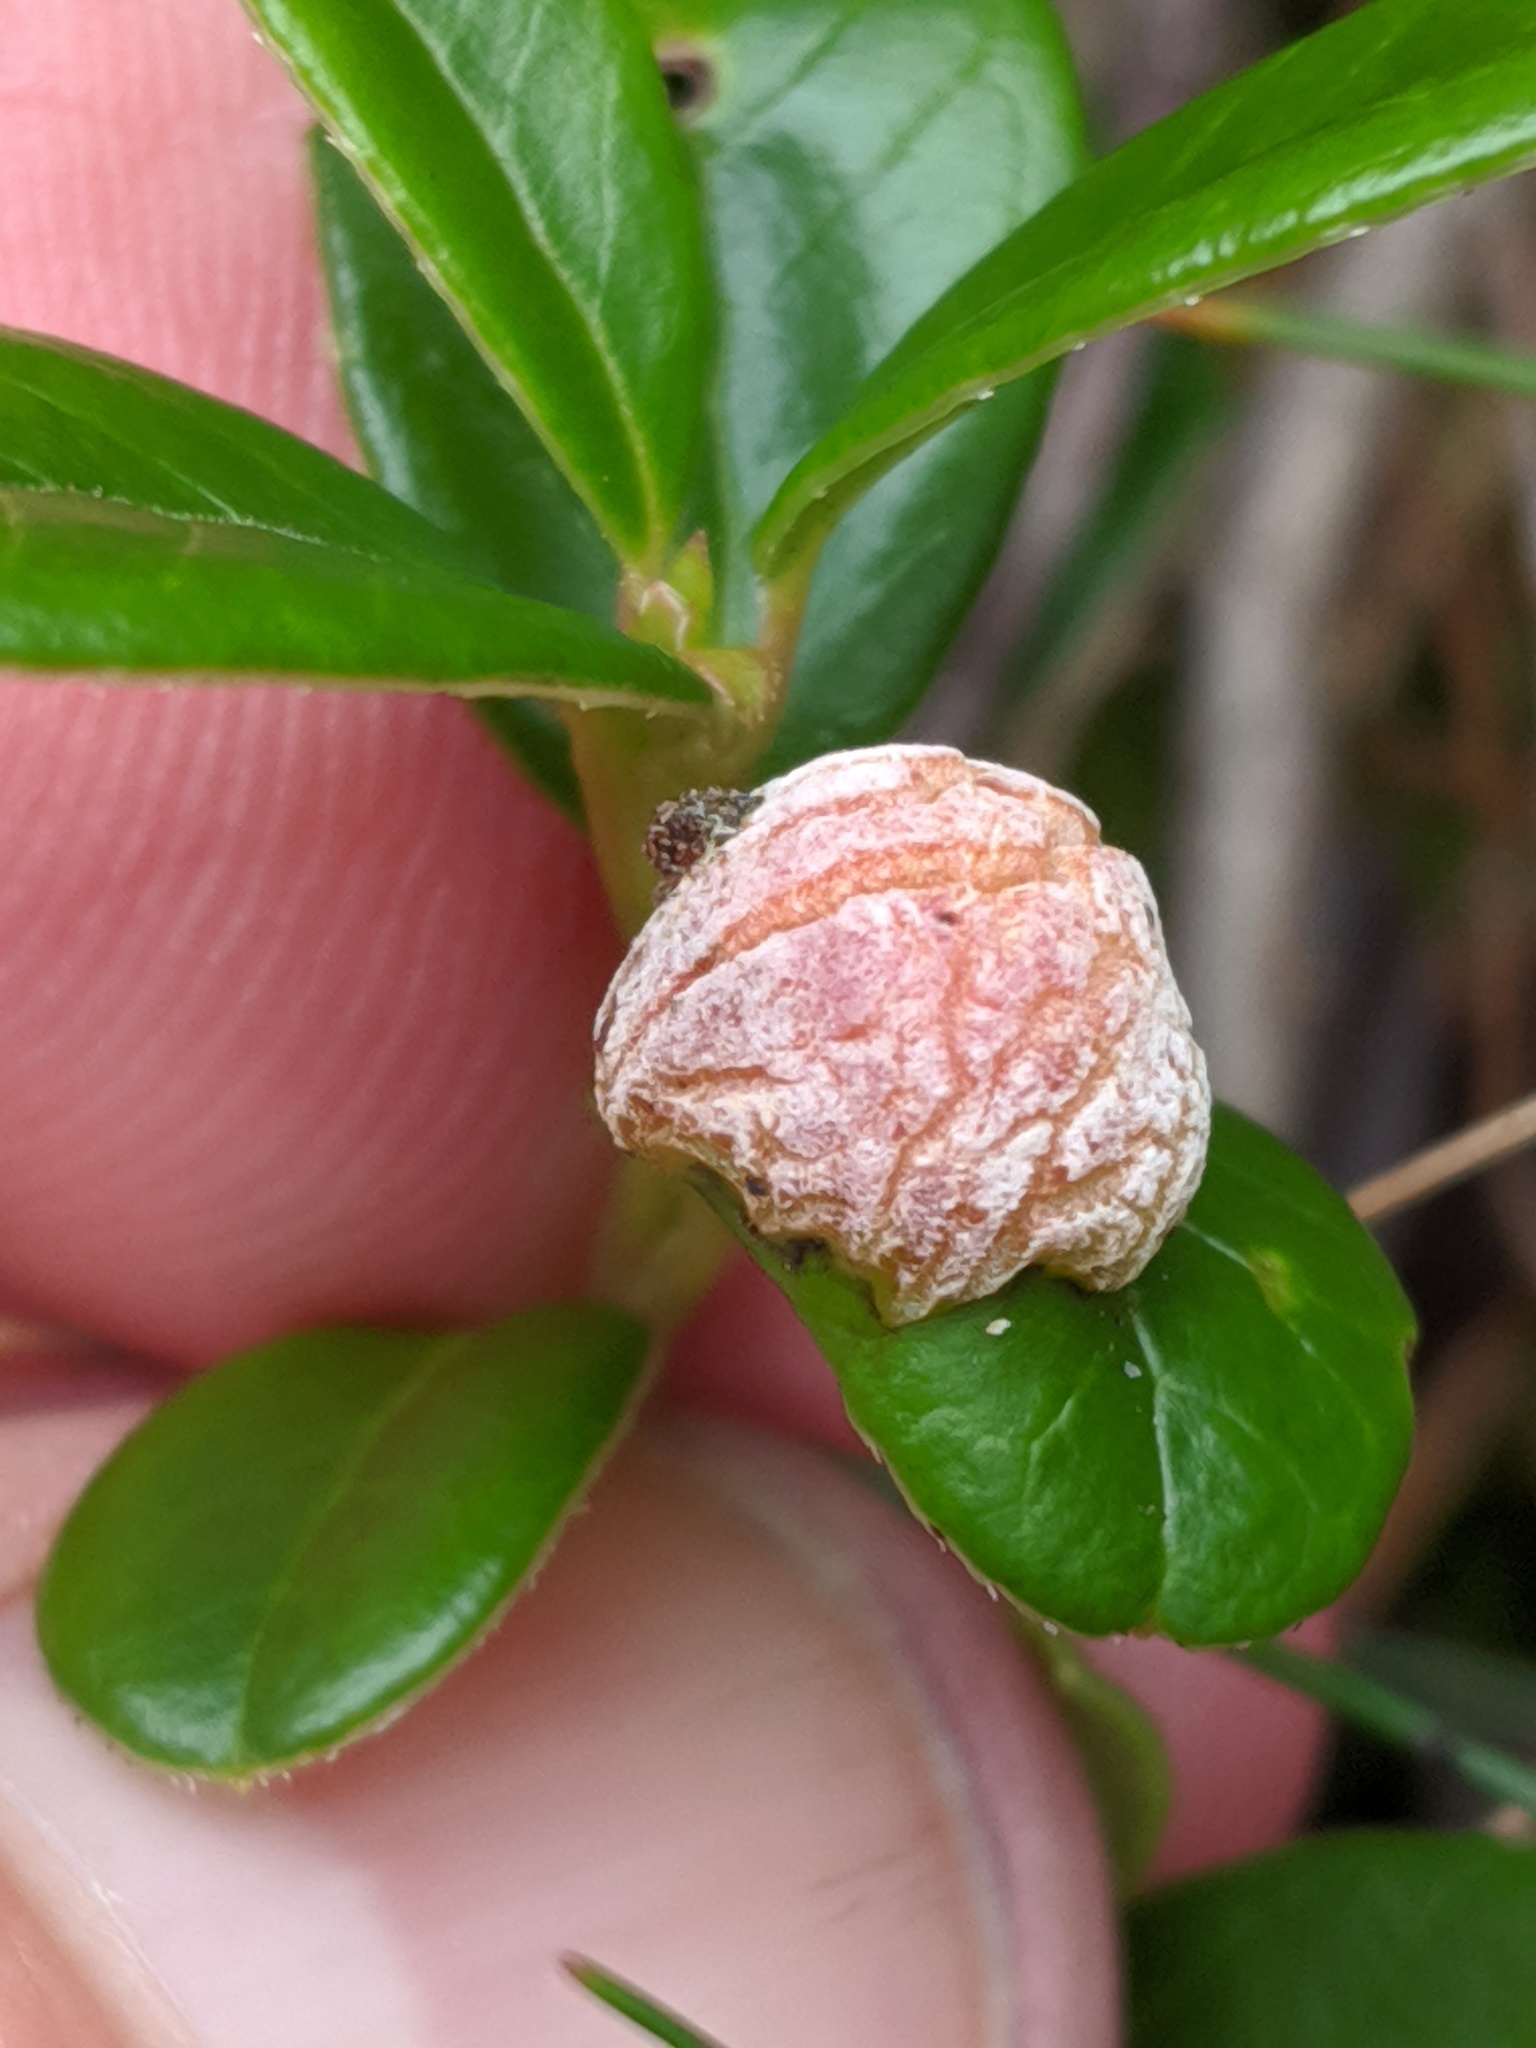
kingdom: Fungi
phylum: Basidiomycota
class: Exobasidiomycetes
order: Exobasidiales
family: Exobasidiaceae
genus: Exobasidium
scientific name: Exobasidium vaccinii
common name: Cowberry redleaf
